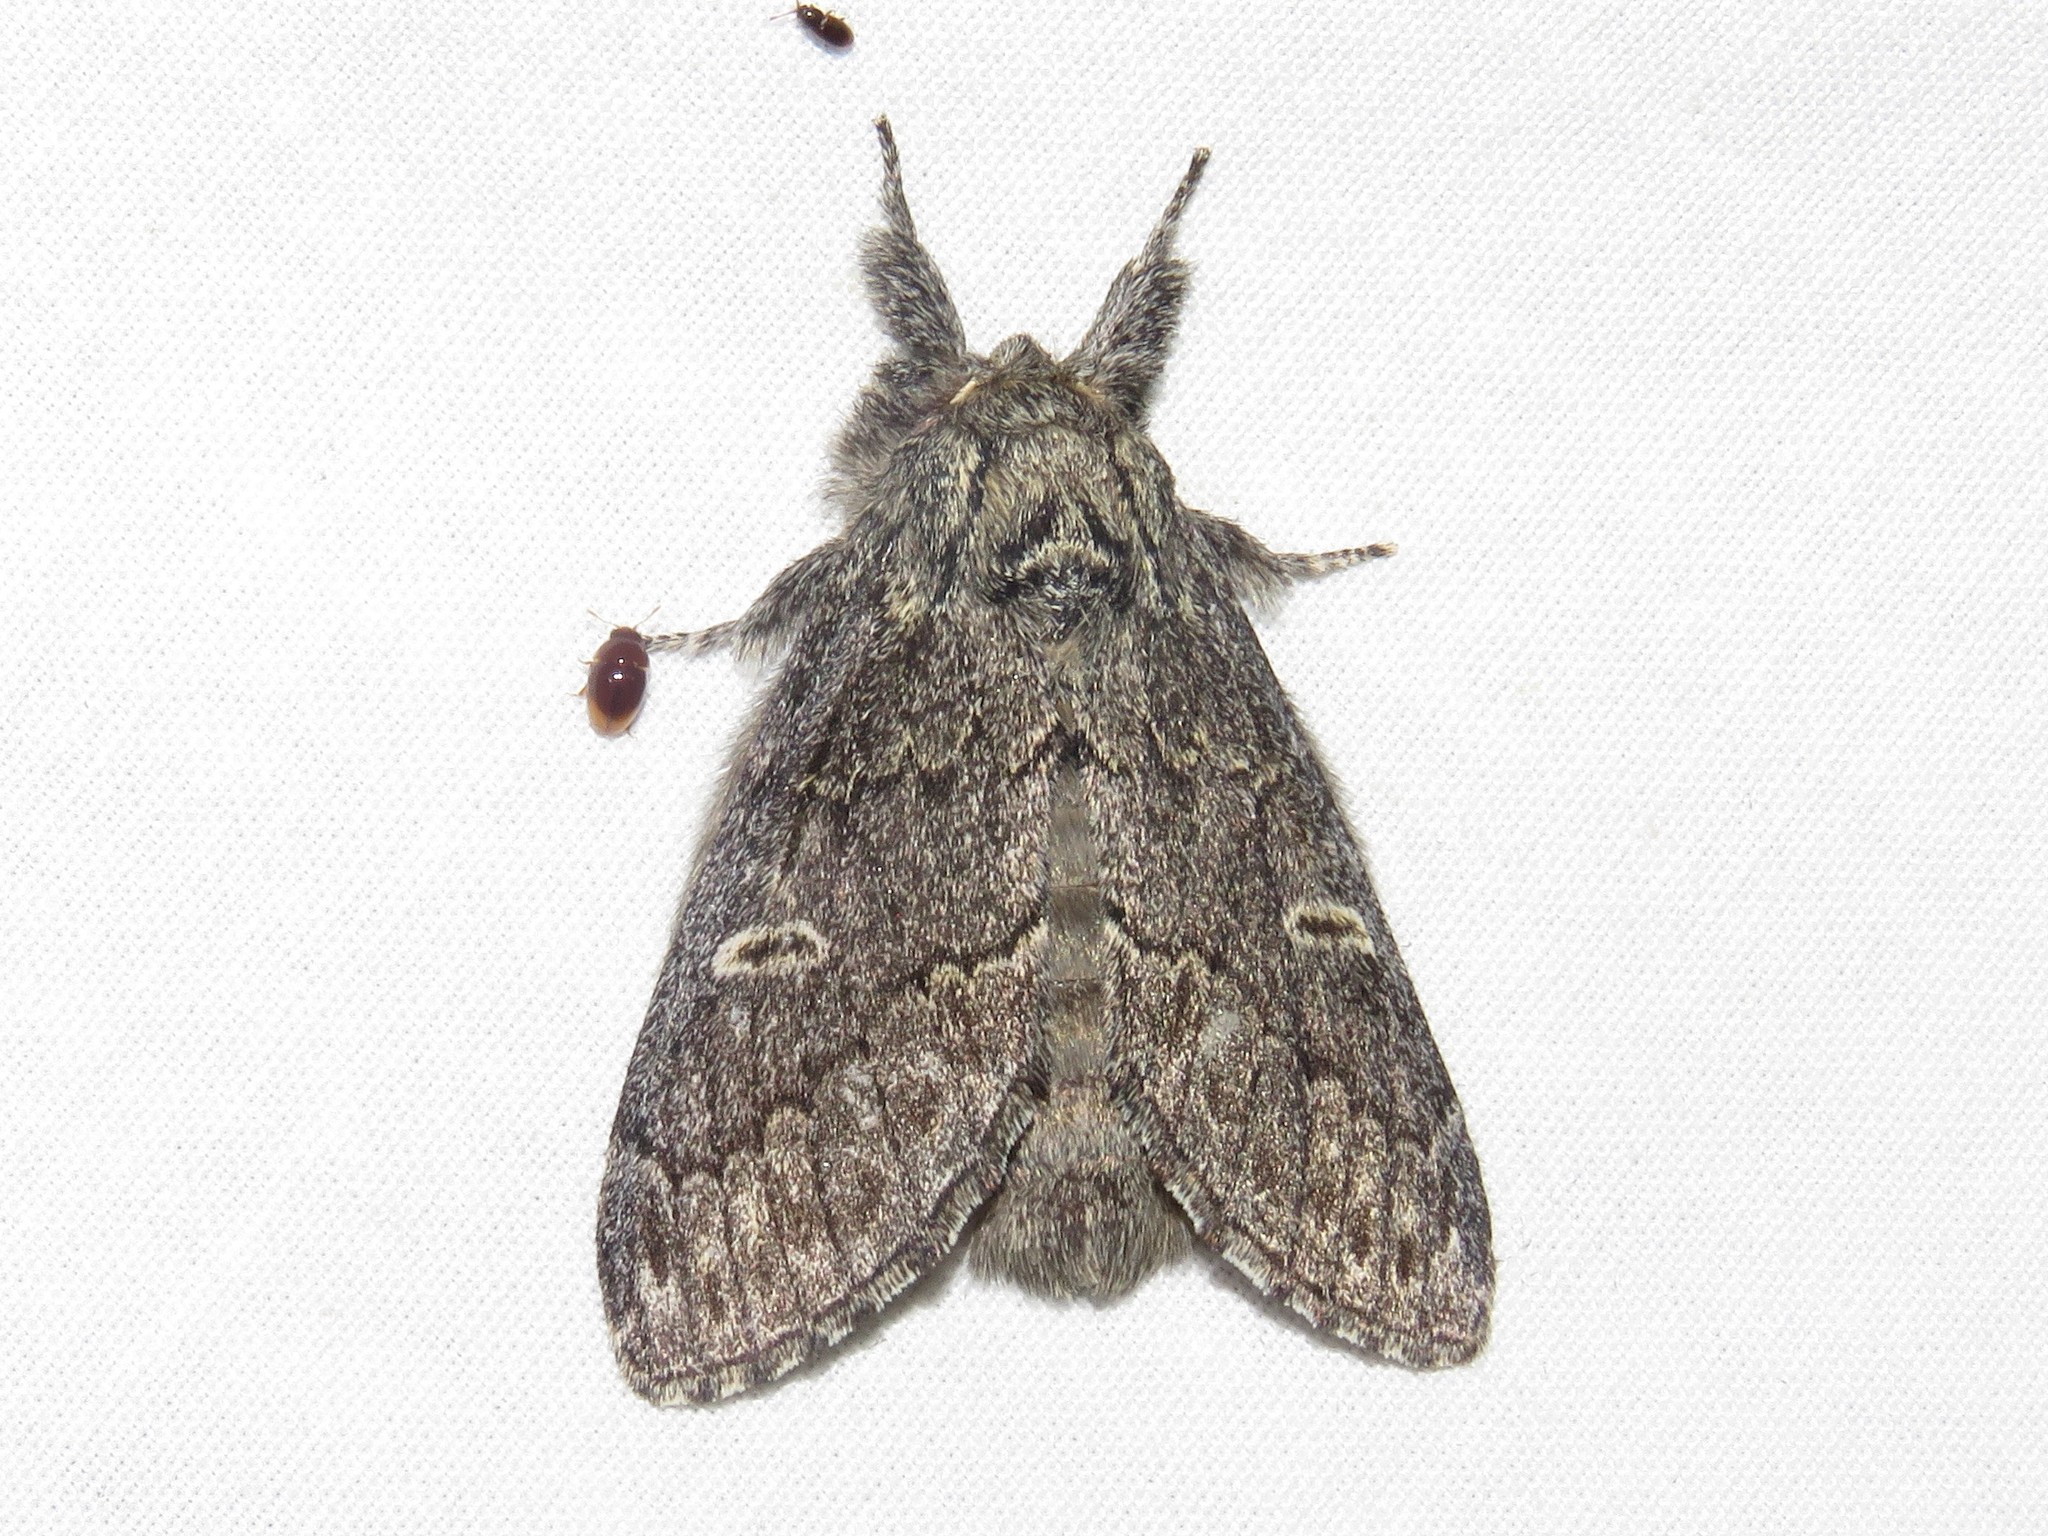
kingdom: Animalia
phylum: Arthropoda
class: Insecta
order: Lepidoptera
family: Notodontidae
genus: Notodonta
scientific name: Notodonta torva
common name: Large dark prominent
